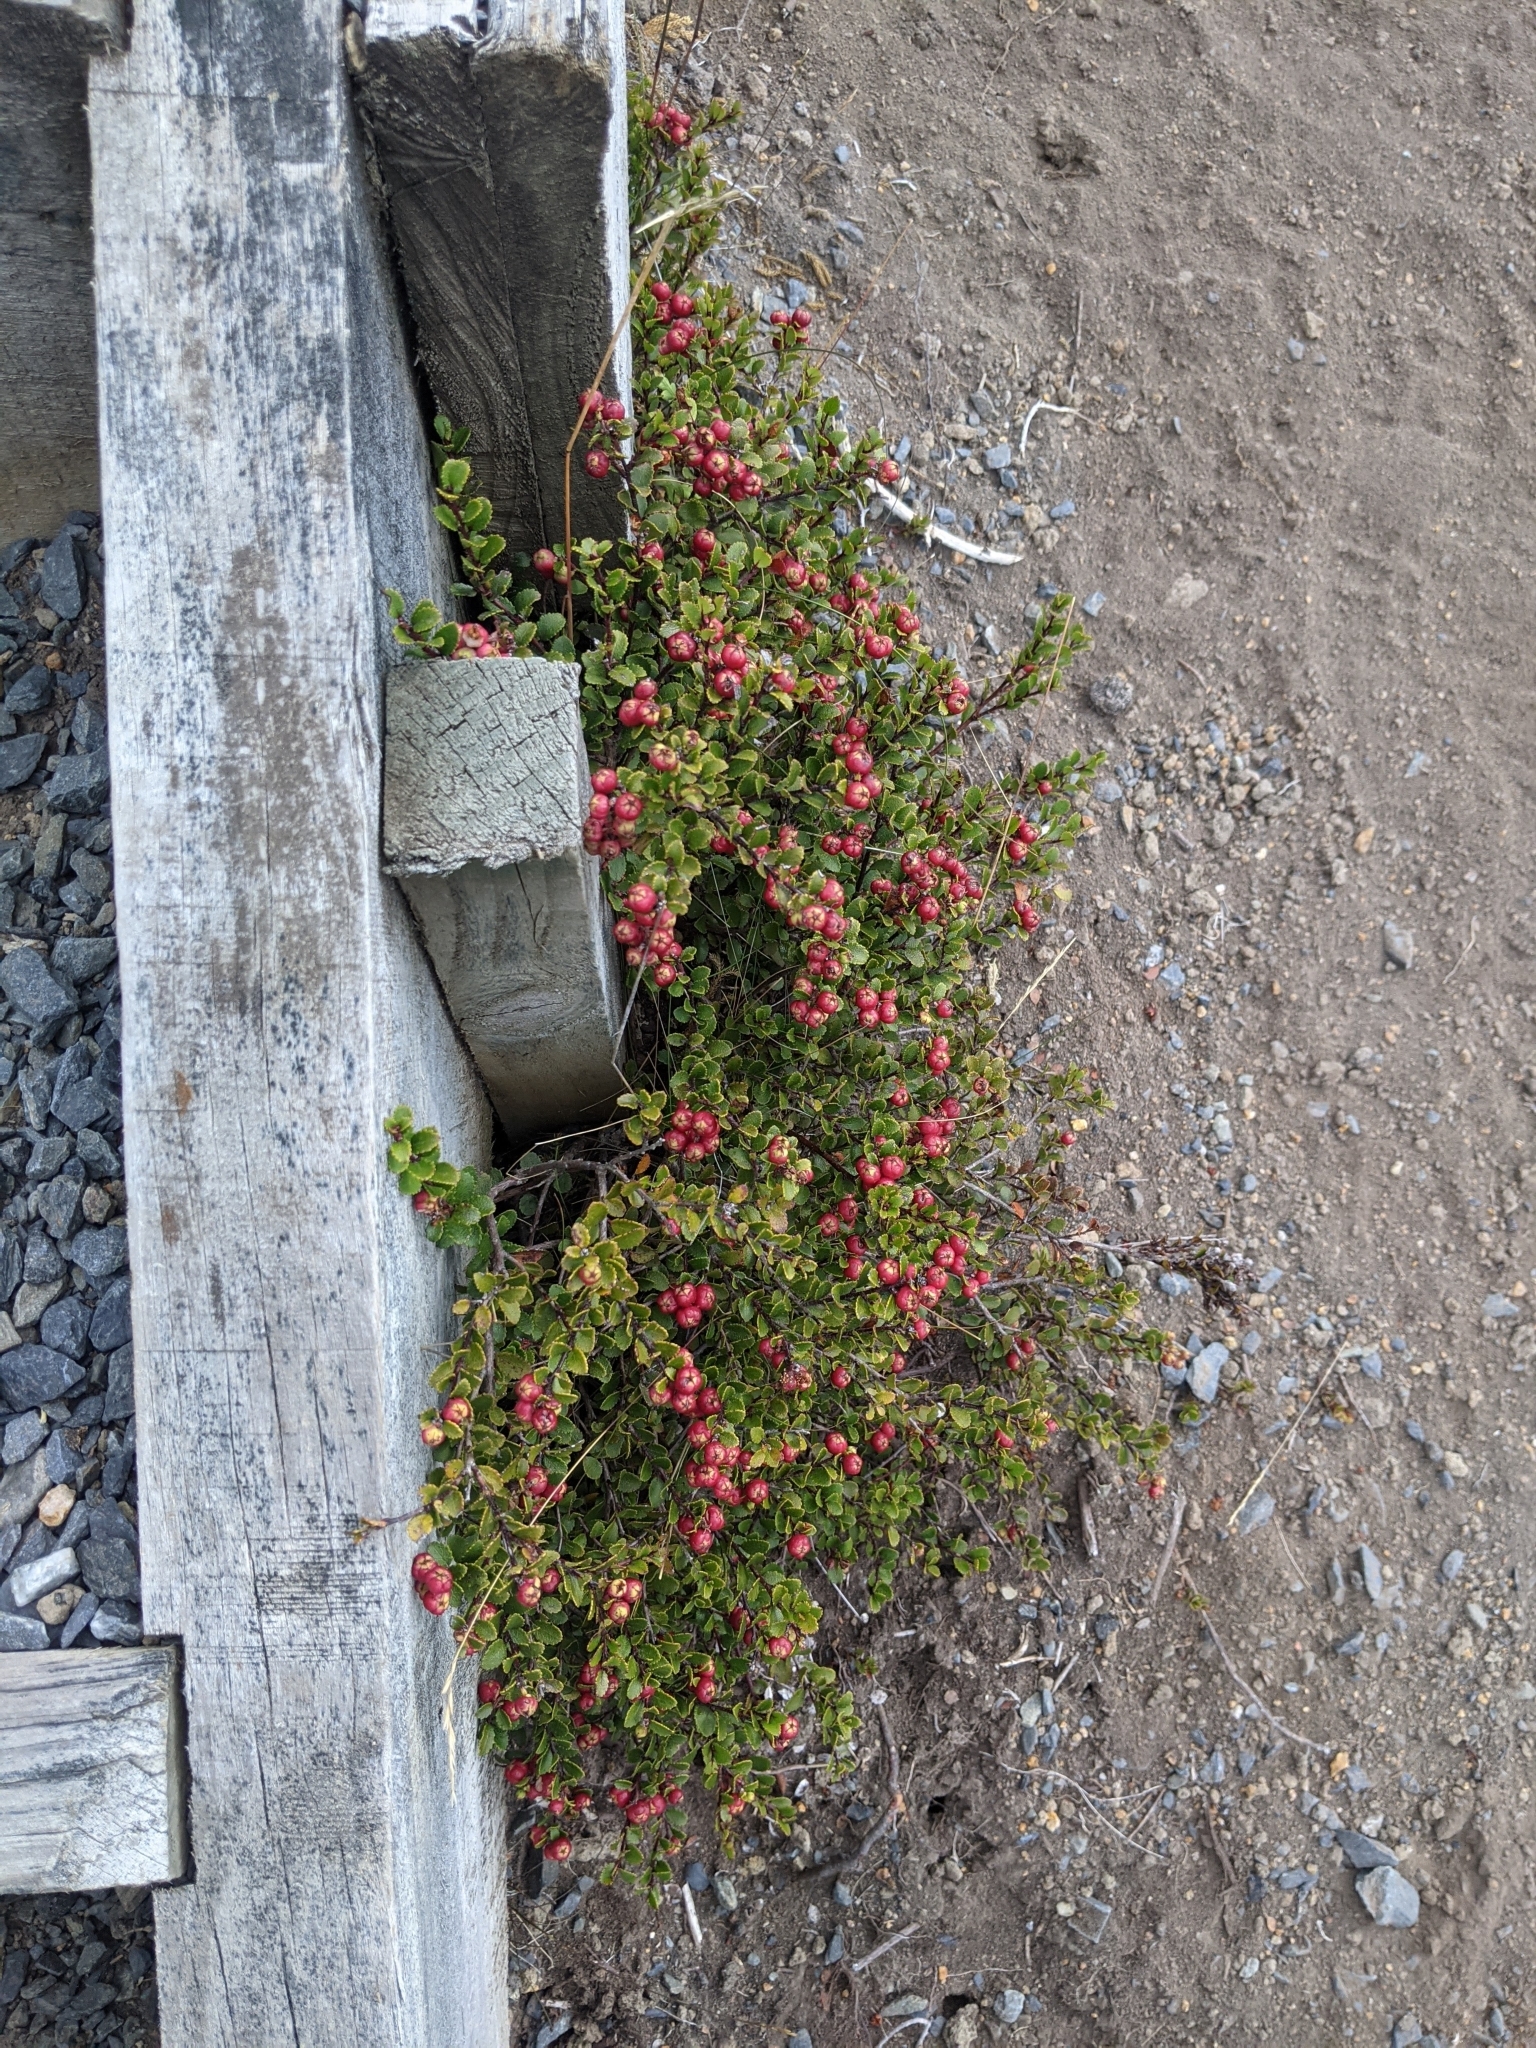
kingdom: Plantae
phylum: Tracheophyta
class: Magnoliopsida
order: Ericales
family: Ericaceae
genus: Gaultheria
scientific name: Gaultheria crassa
